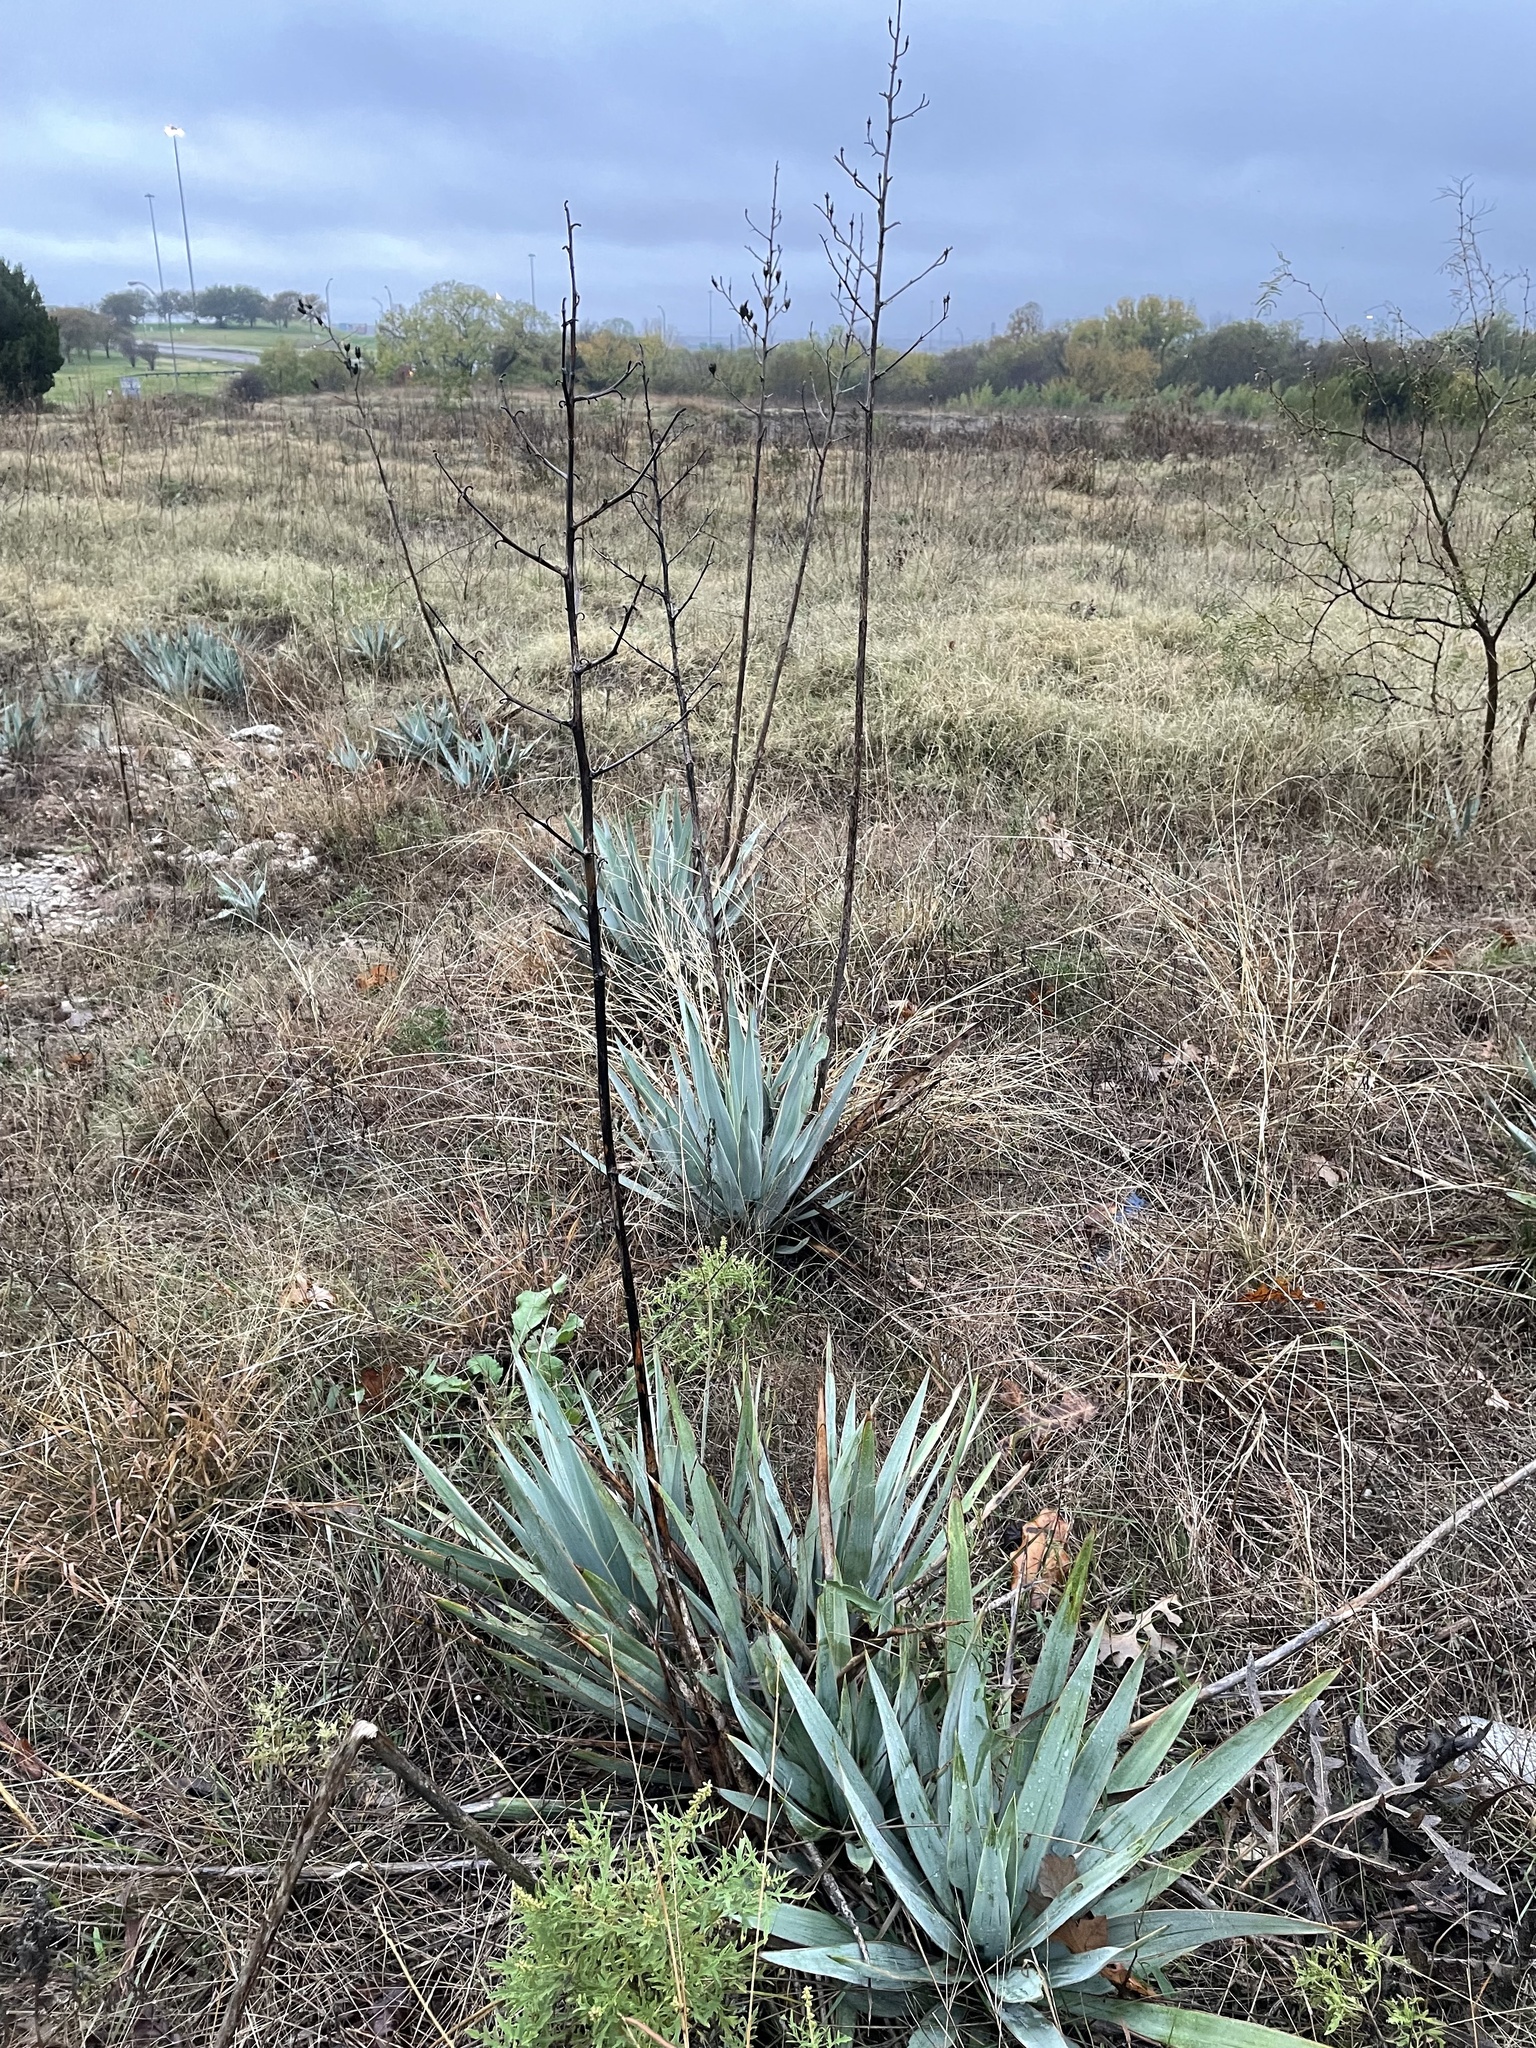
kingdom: Plantae
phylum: Tracheophyta
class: Liliopsida
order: Asparagales
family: Asparagaceae
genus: Yucca
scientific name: Yucca pallida
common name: Pale leaf yucca
